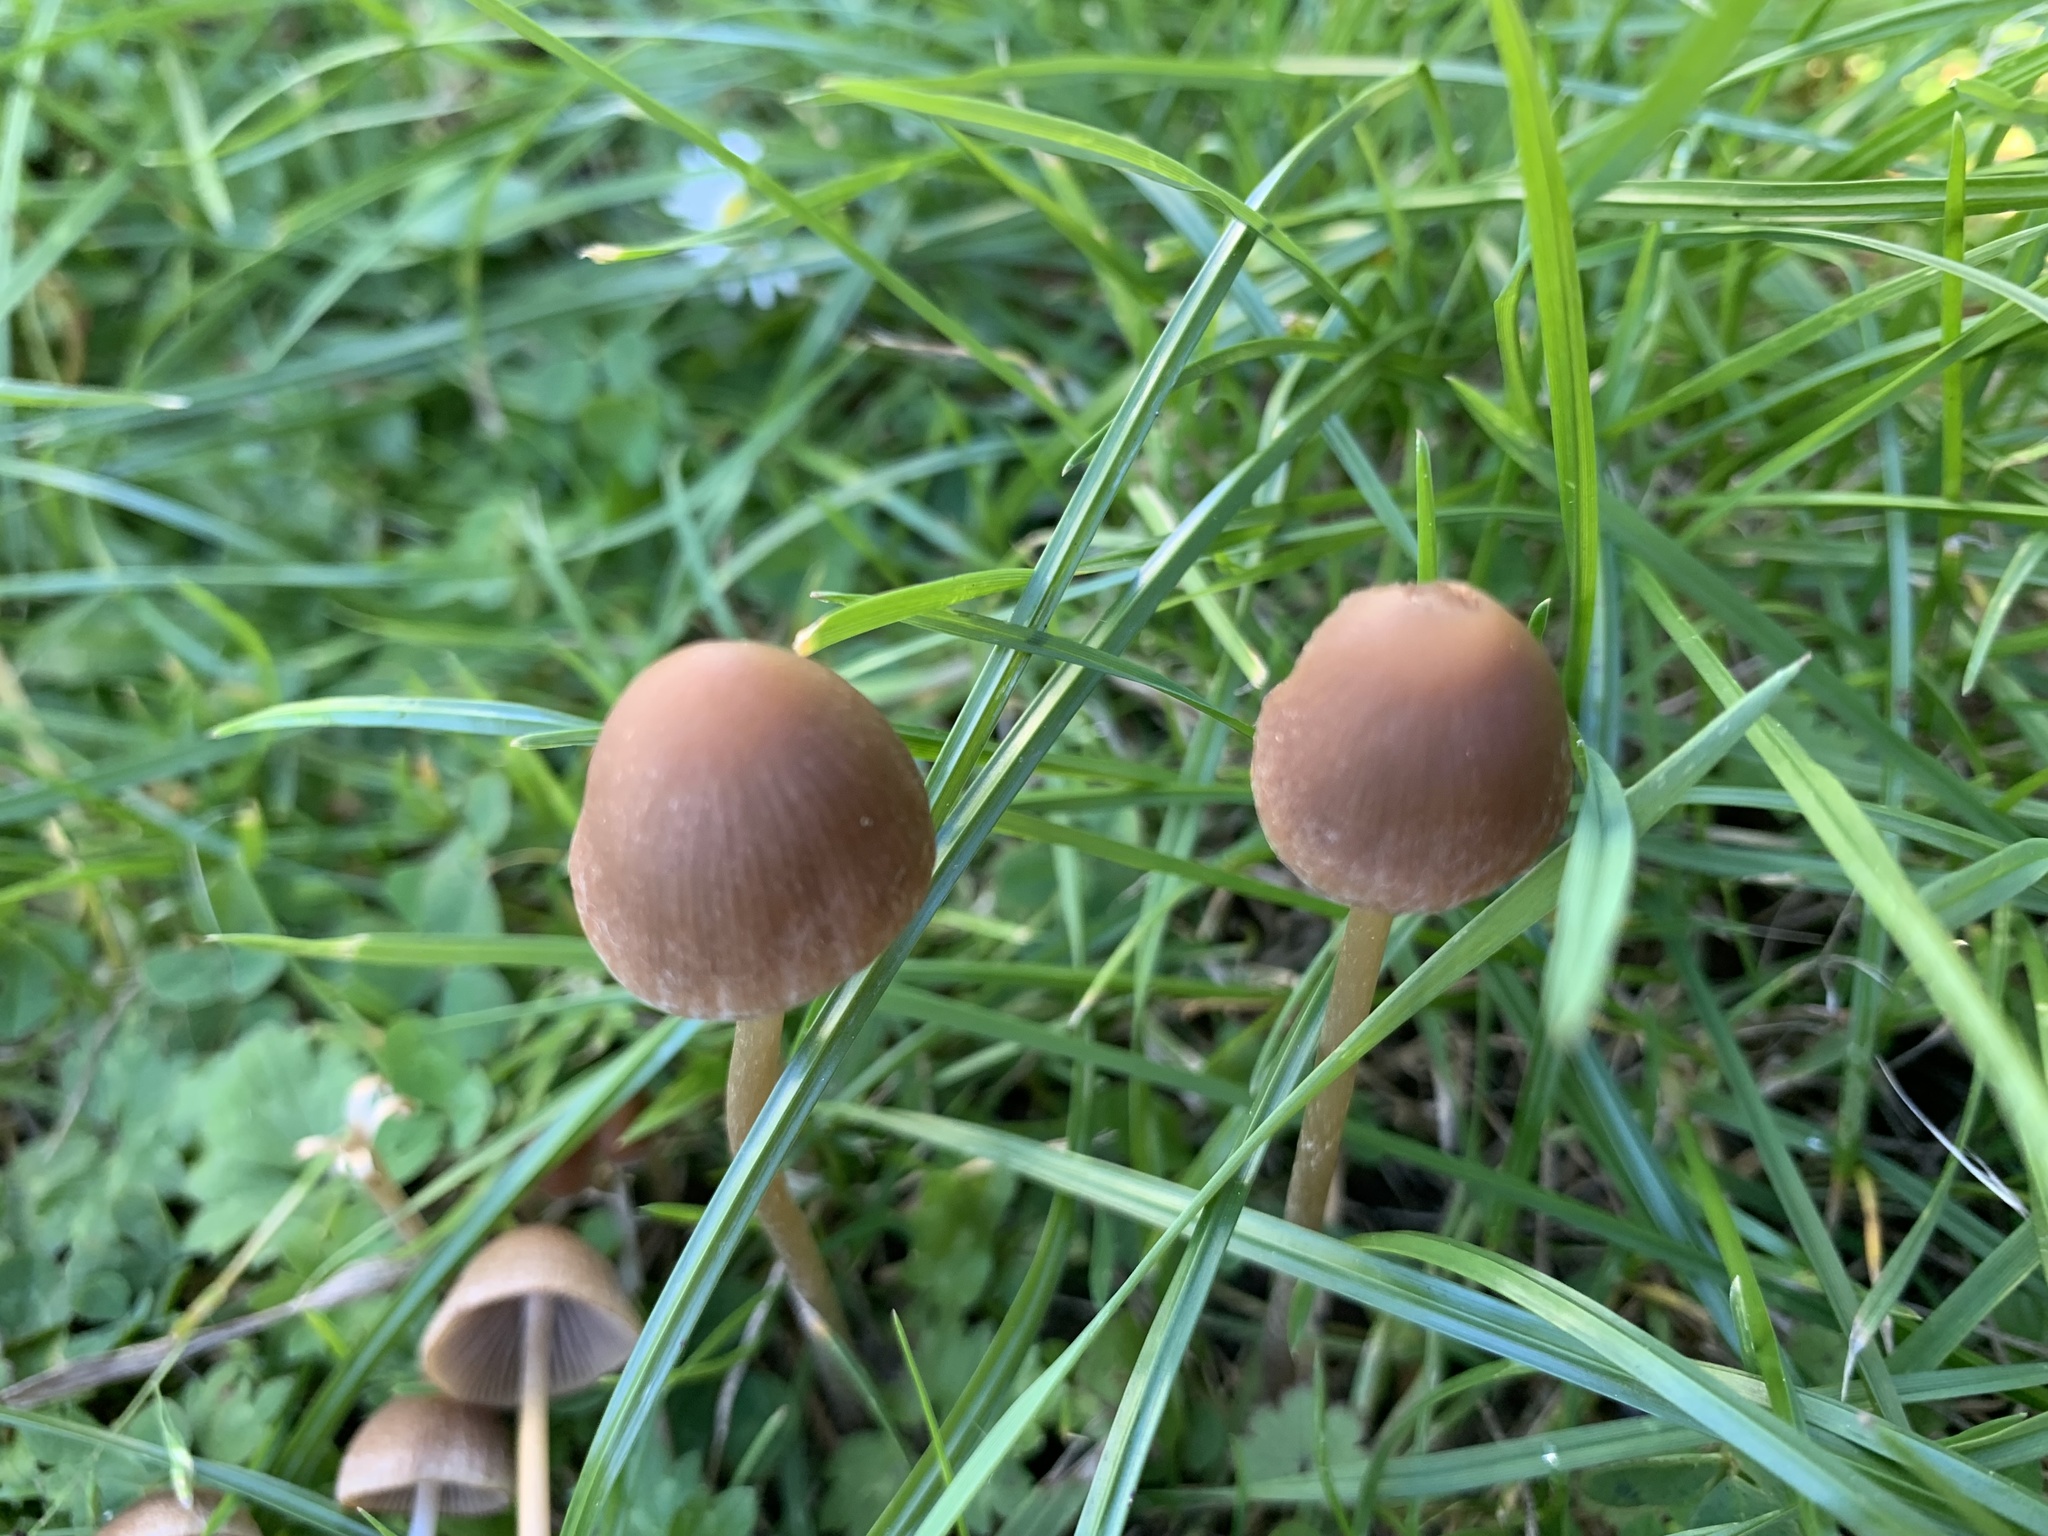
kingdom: Fungi
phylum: Basidiomycota
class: Agaricomycetes
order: Agaricales
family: Bolbitiaceae
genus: Panaeolina
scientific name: Panaeolina foenisecii
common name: Brown hay cap
